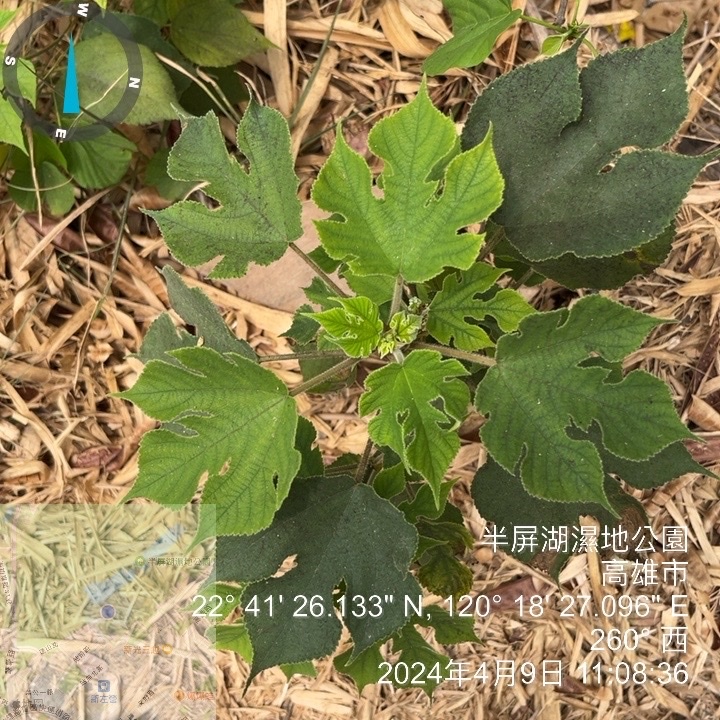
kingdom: Plantae
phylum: Tracheophyta
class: Magnoliopsida
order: Rosales
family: Moraceae
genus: Broussonetia
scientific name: Broussonetia papyrifera
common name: Paper mulberry
